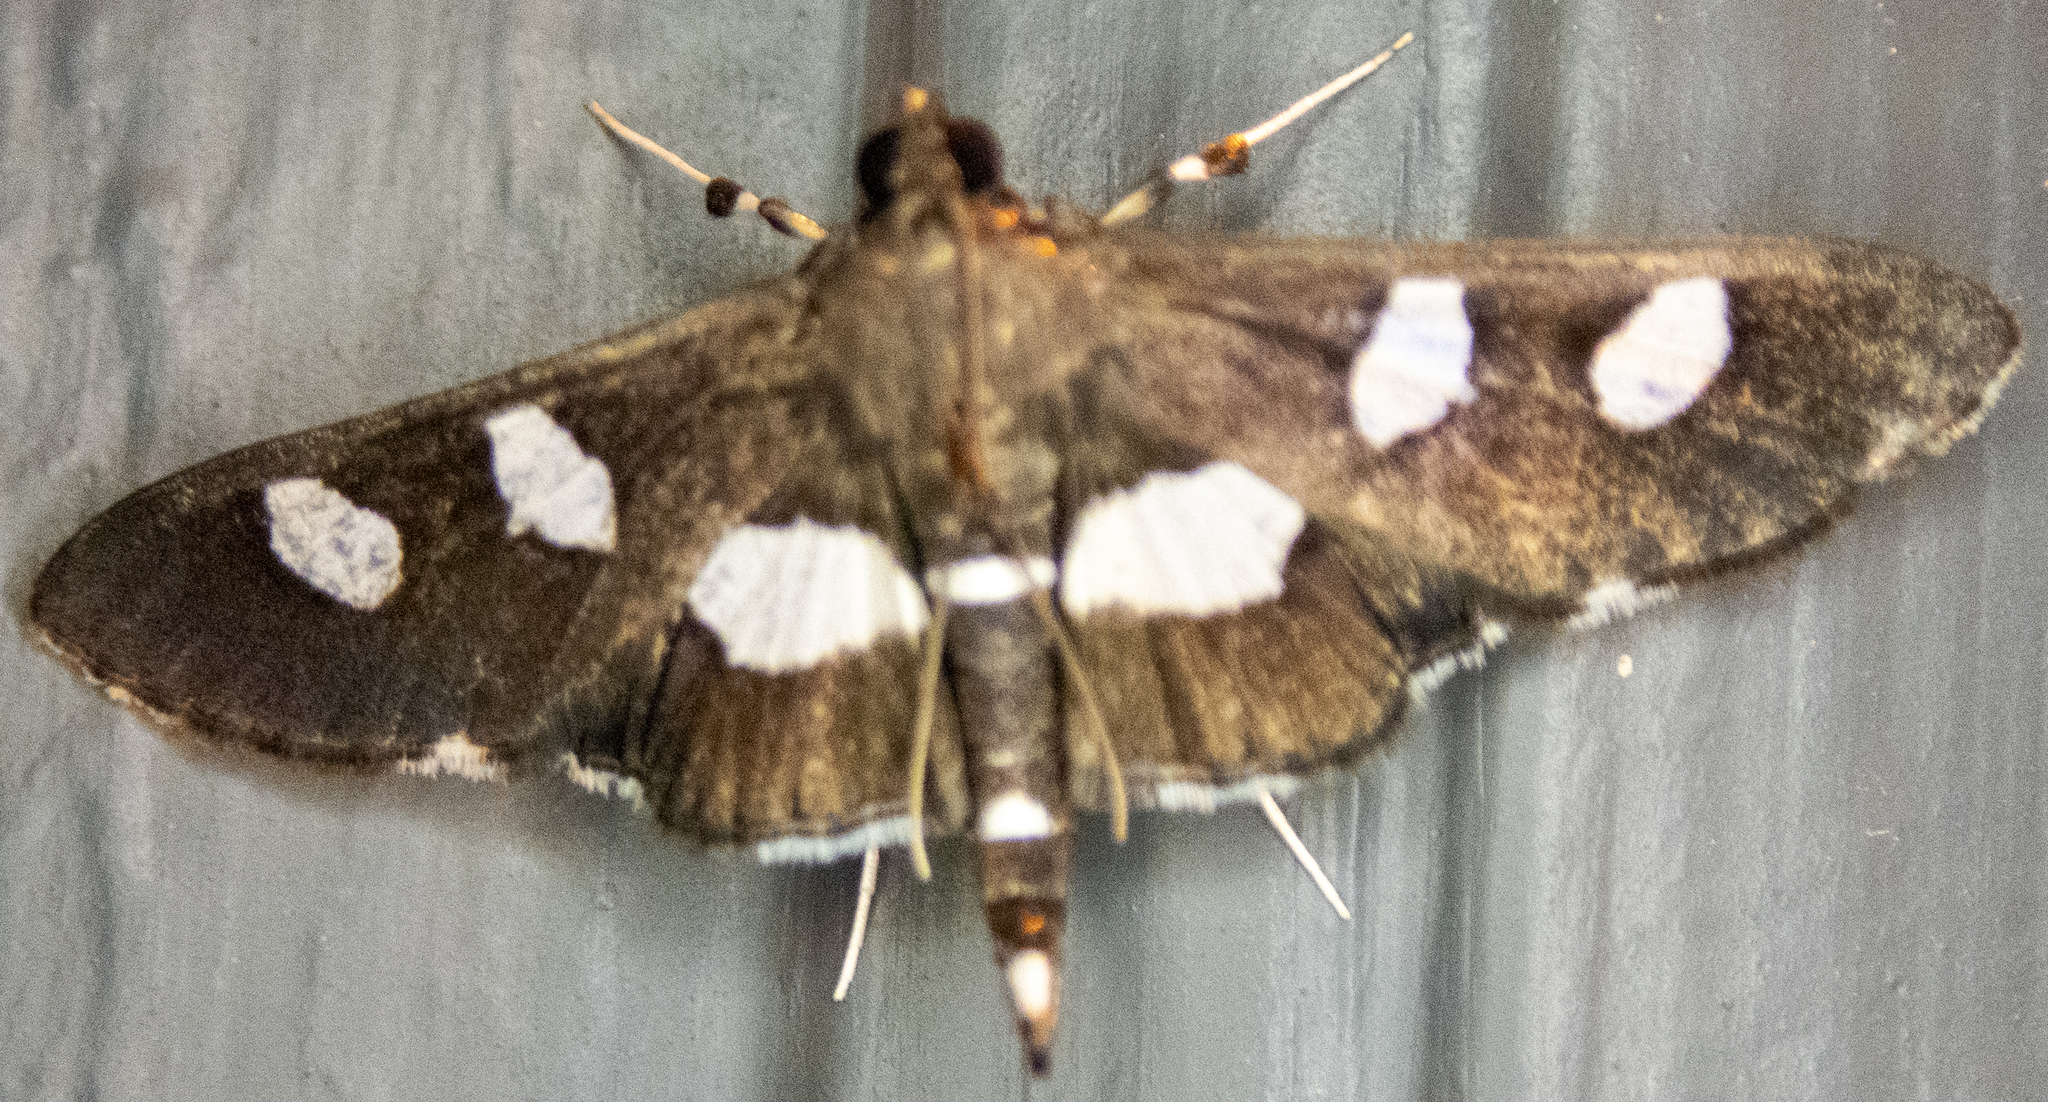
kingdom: Animalia
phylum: Arthropoda
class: Insecta
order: Lepidoptera
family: Crambidae
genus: Desmia
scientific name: Desmia
